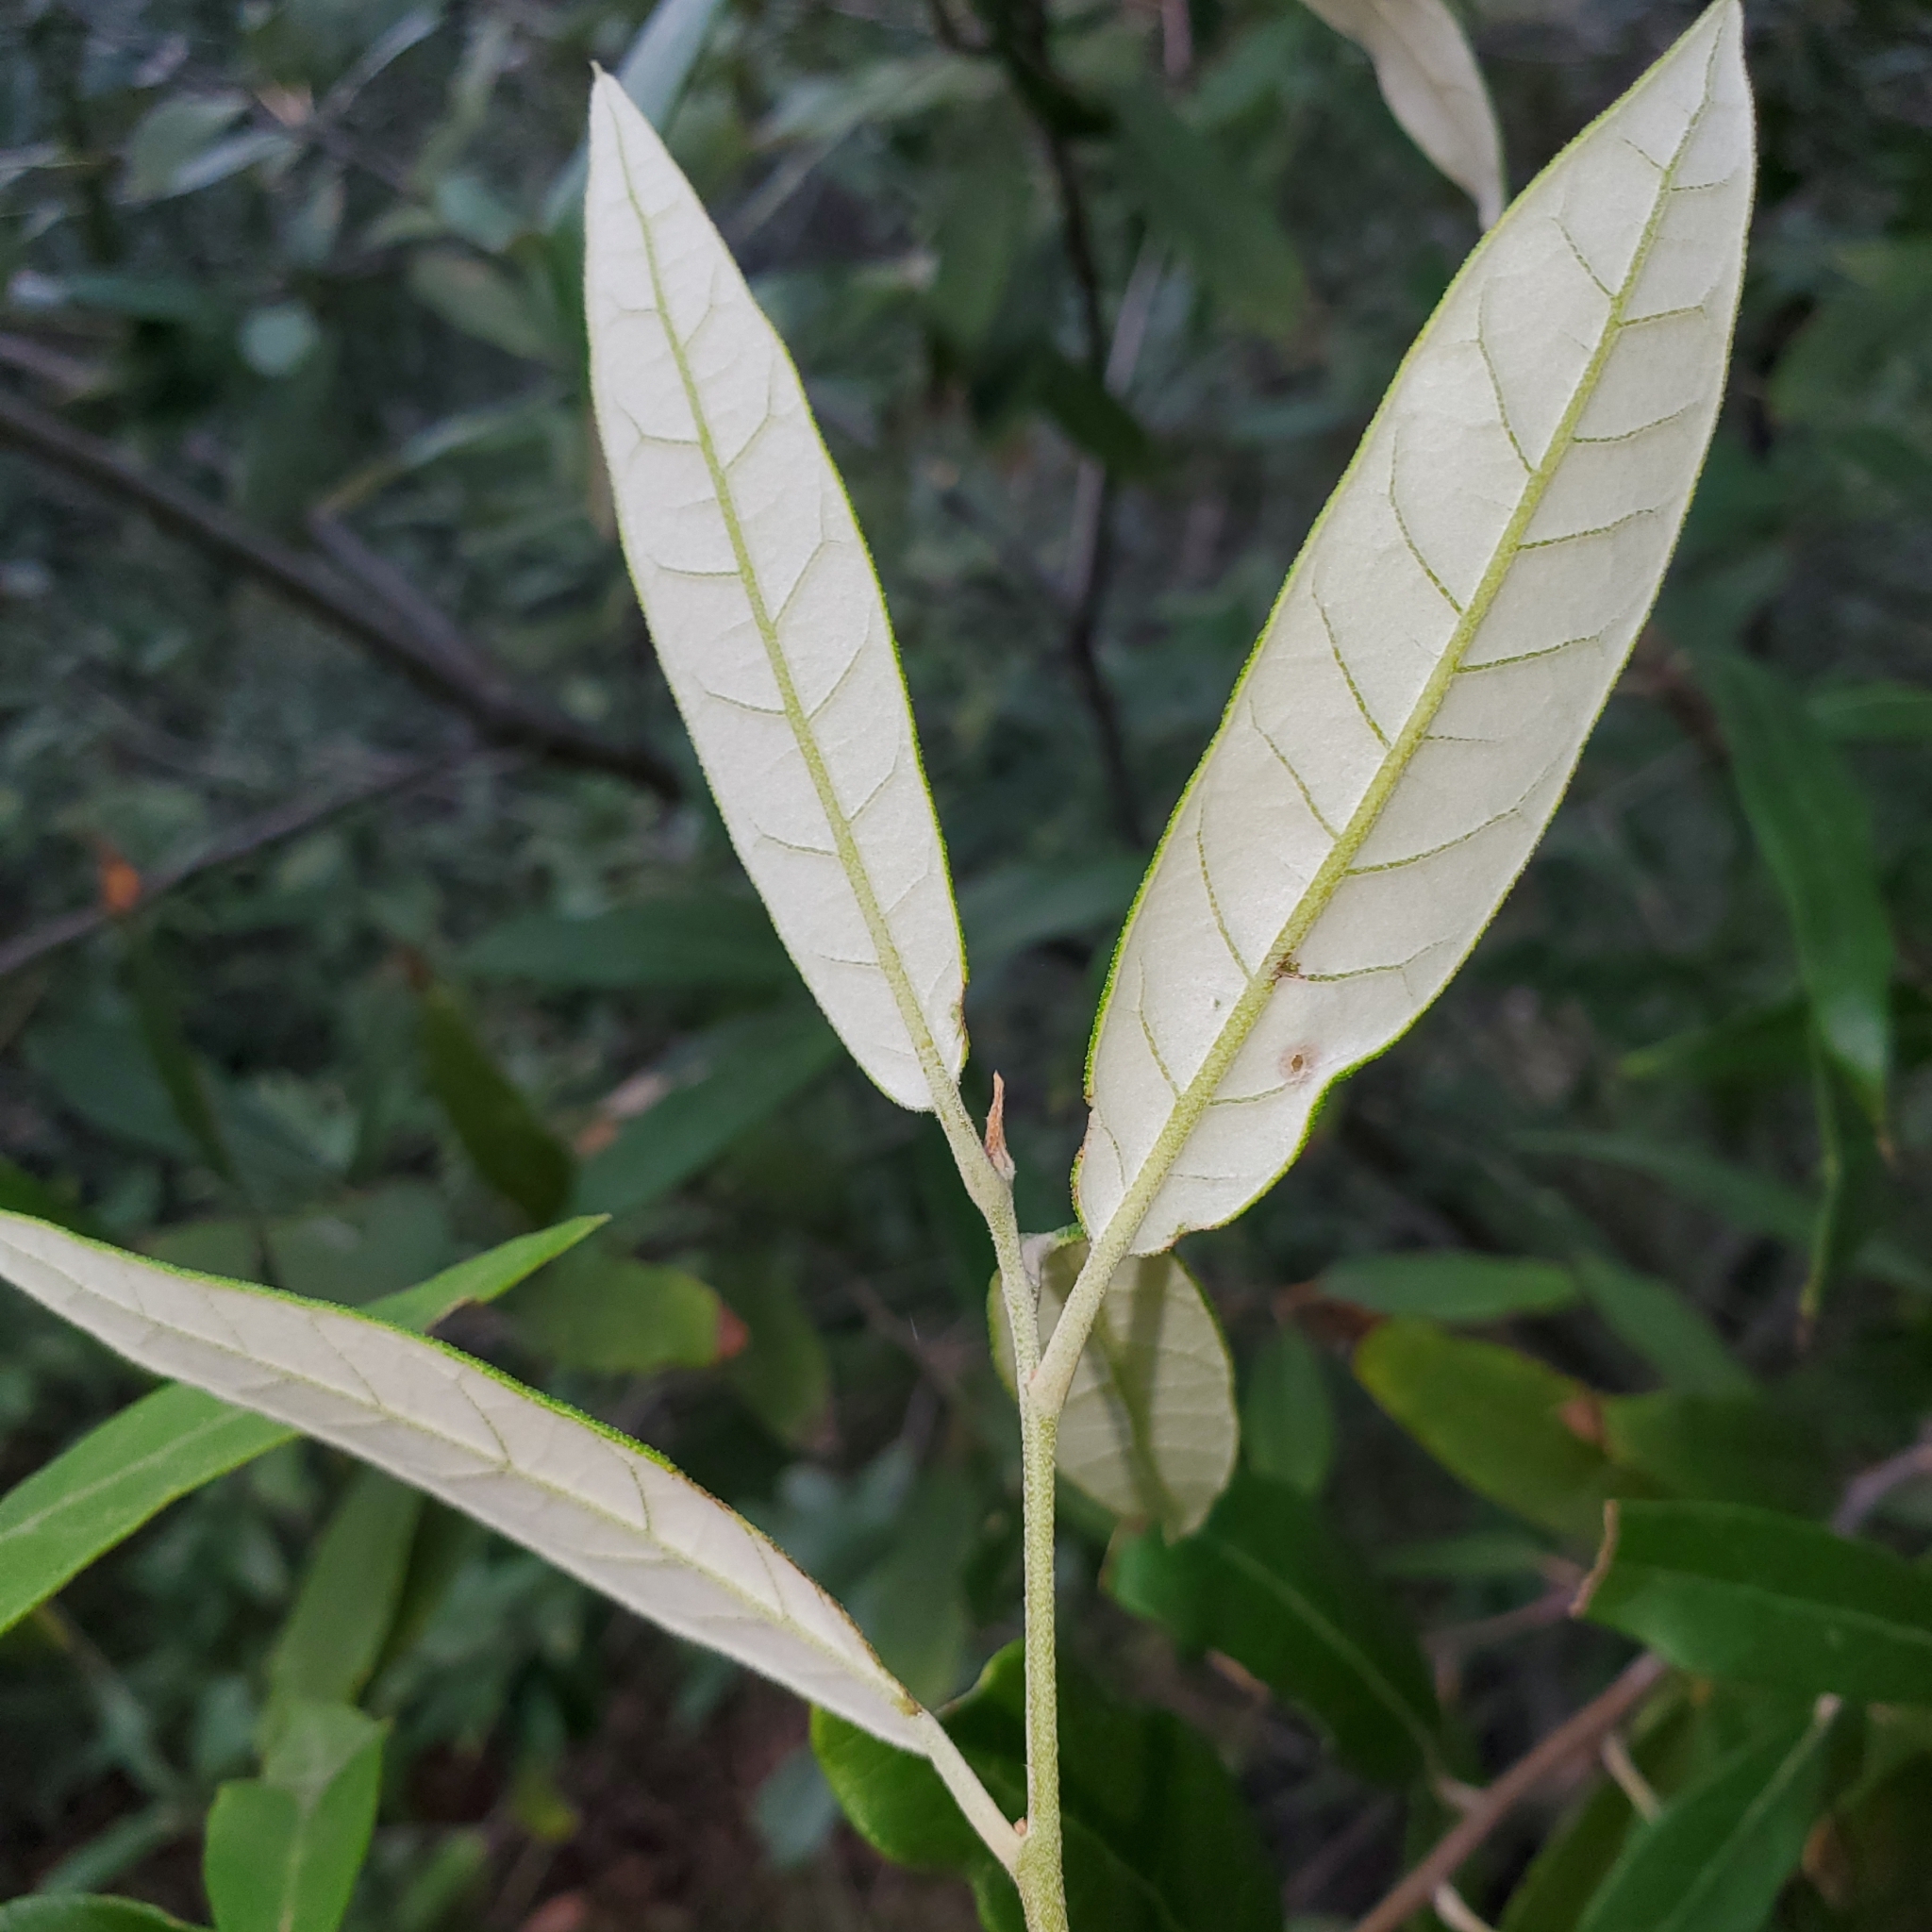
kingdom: Plantae
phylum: Tracheophyta
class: Magnoliopsida
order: Fagales
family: Fagaceae
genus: Quercus
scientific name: Quercus hypoleucoides
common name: Silverleaf oak
